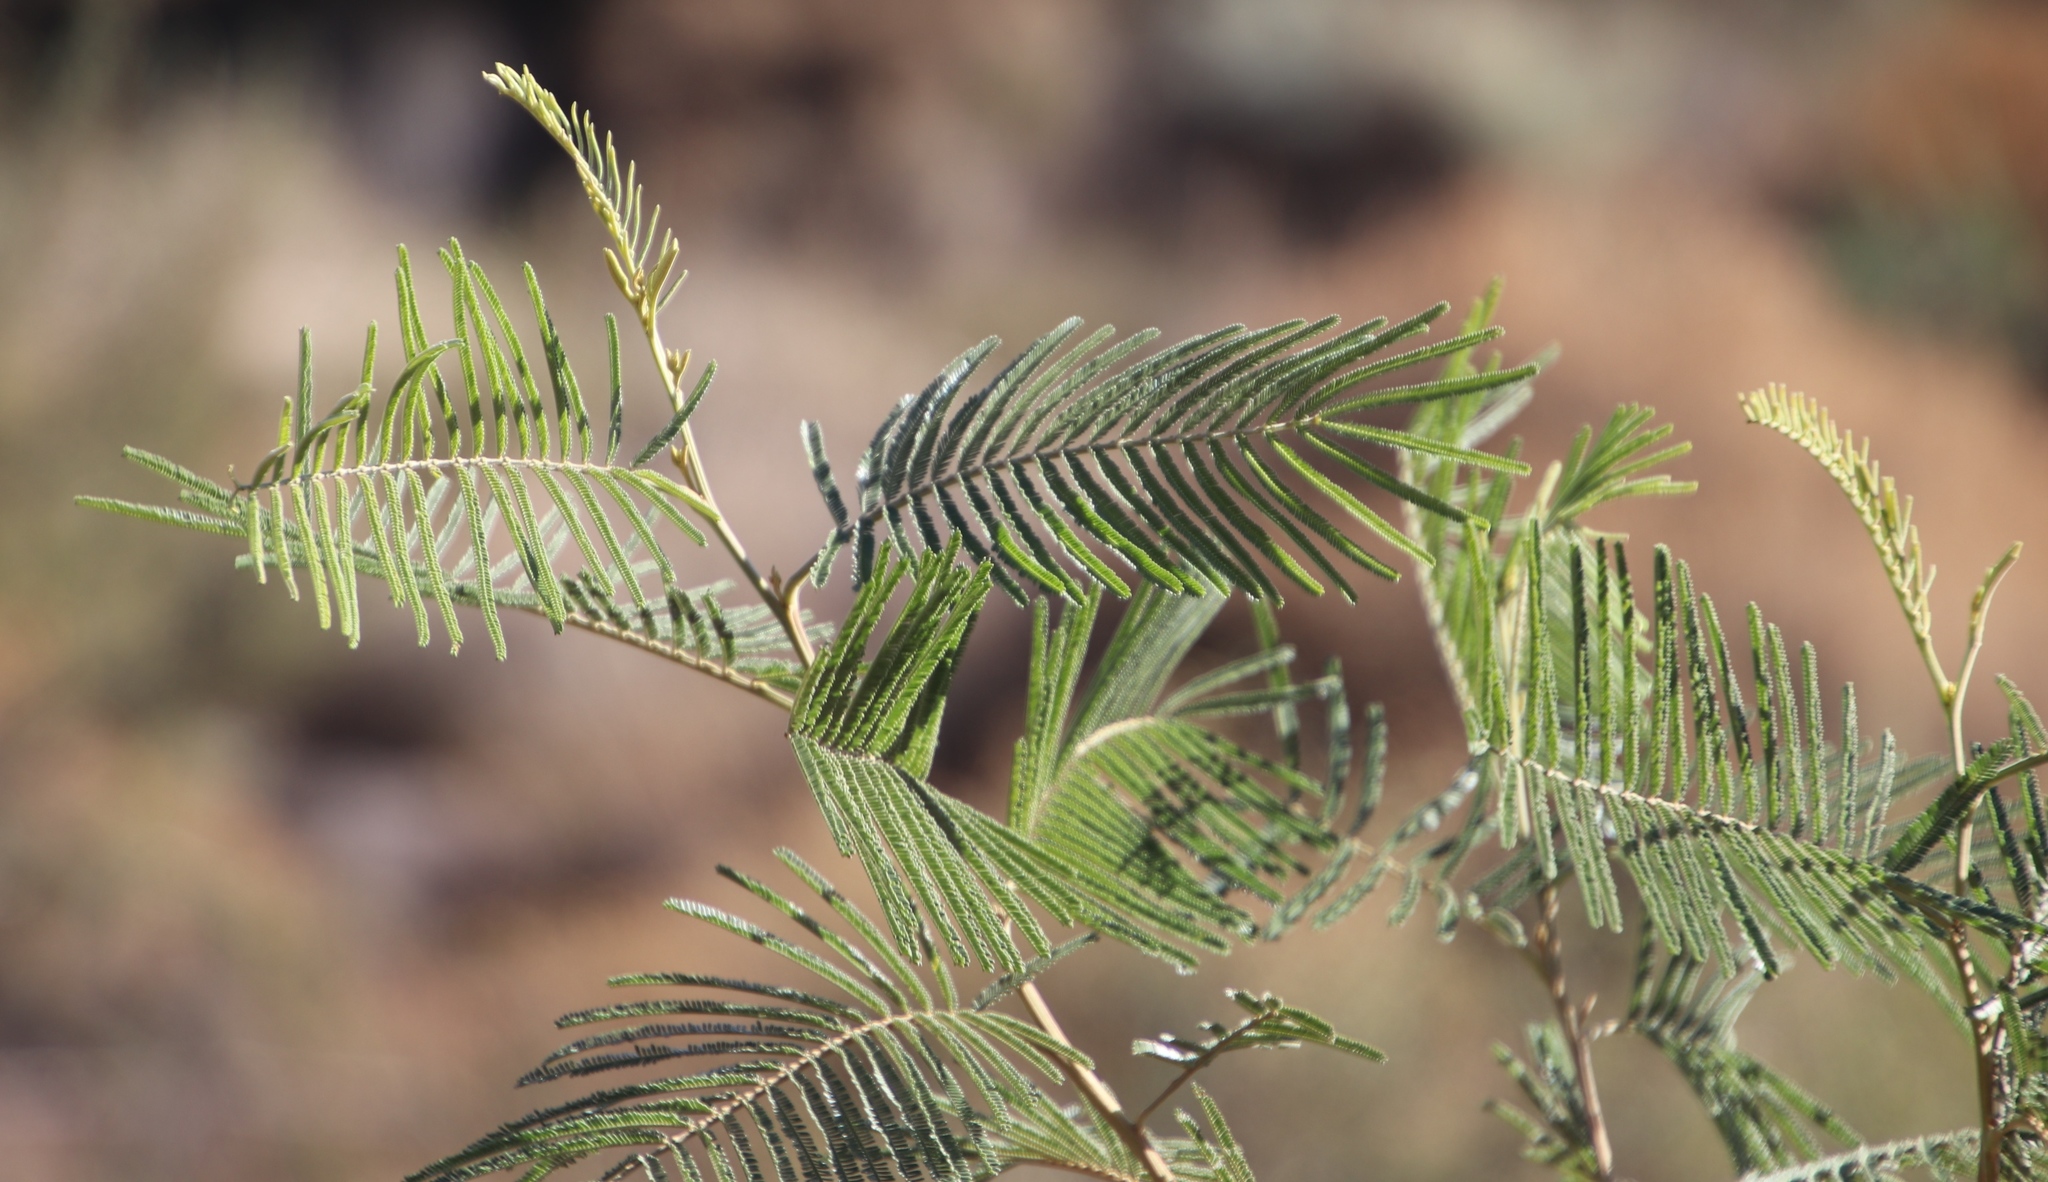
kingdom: Plantae
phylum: Tracheophyta
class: Magnoliopsida
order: Fabales
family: Fabaceae
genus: Acacia
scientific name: Acacia mearnsii
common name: Black wattle
